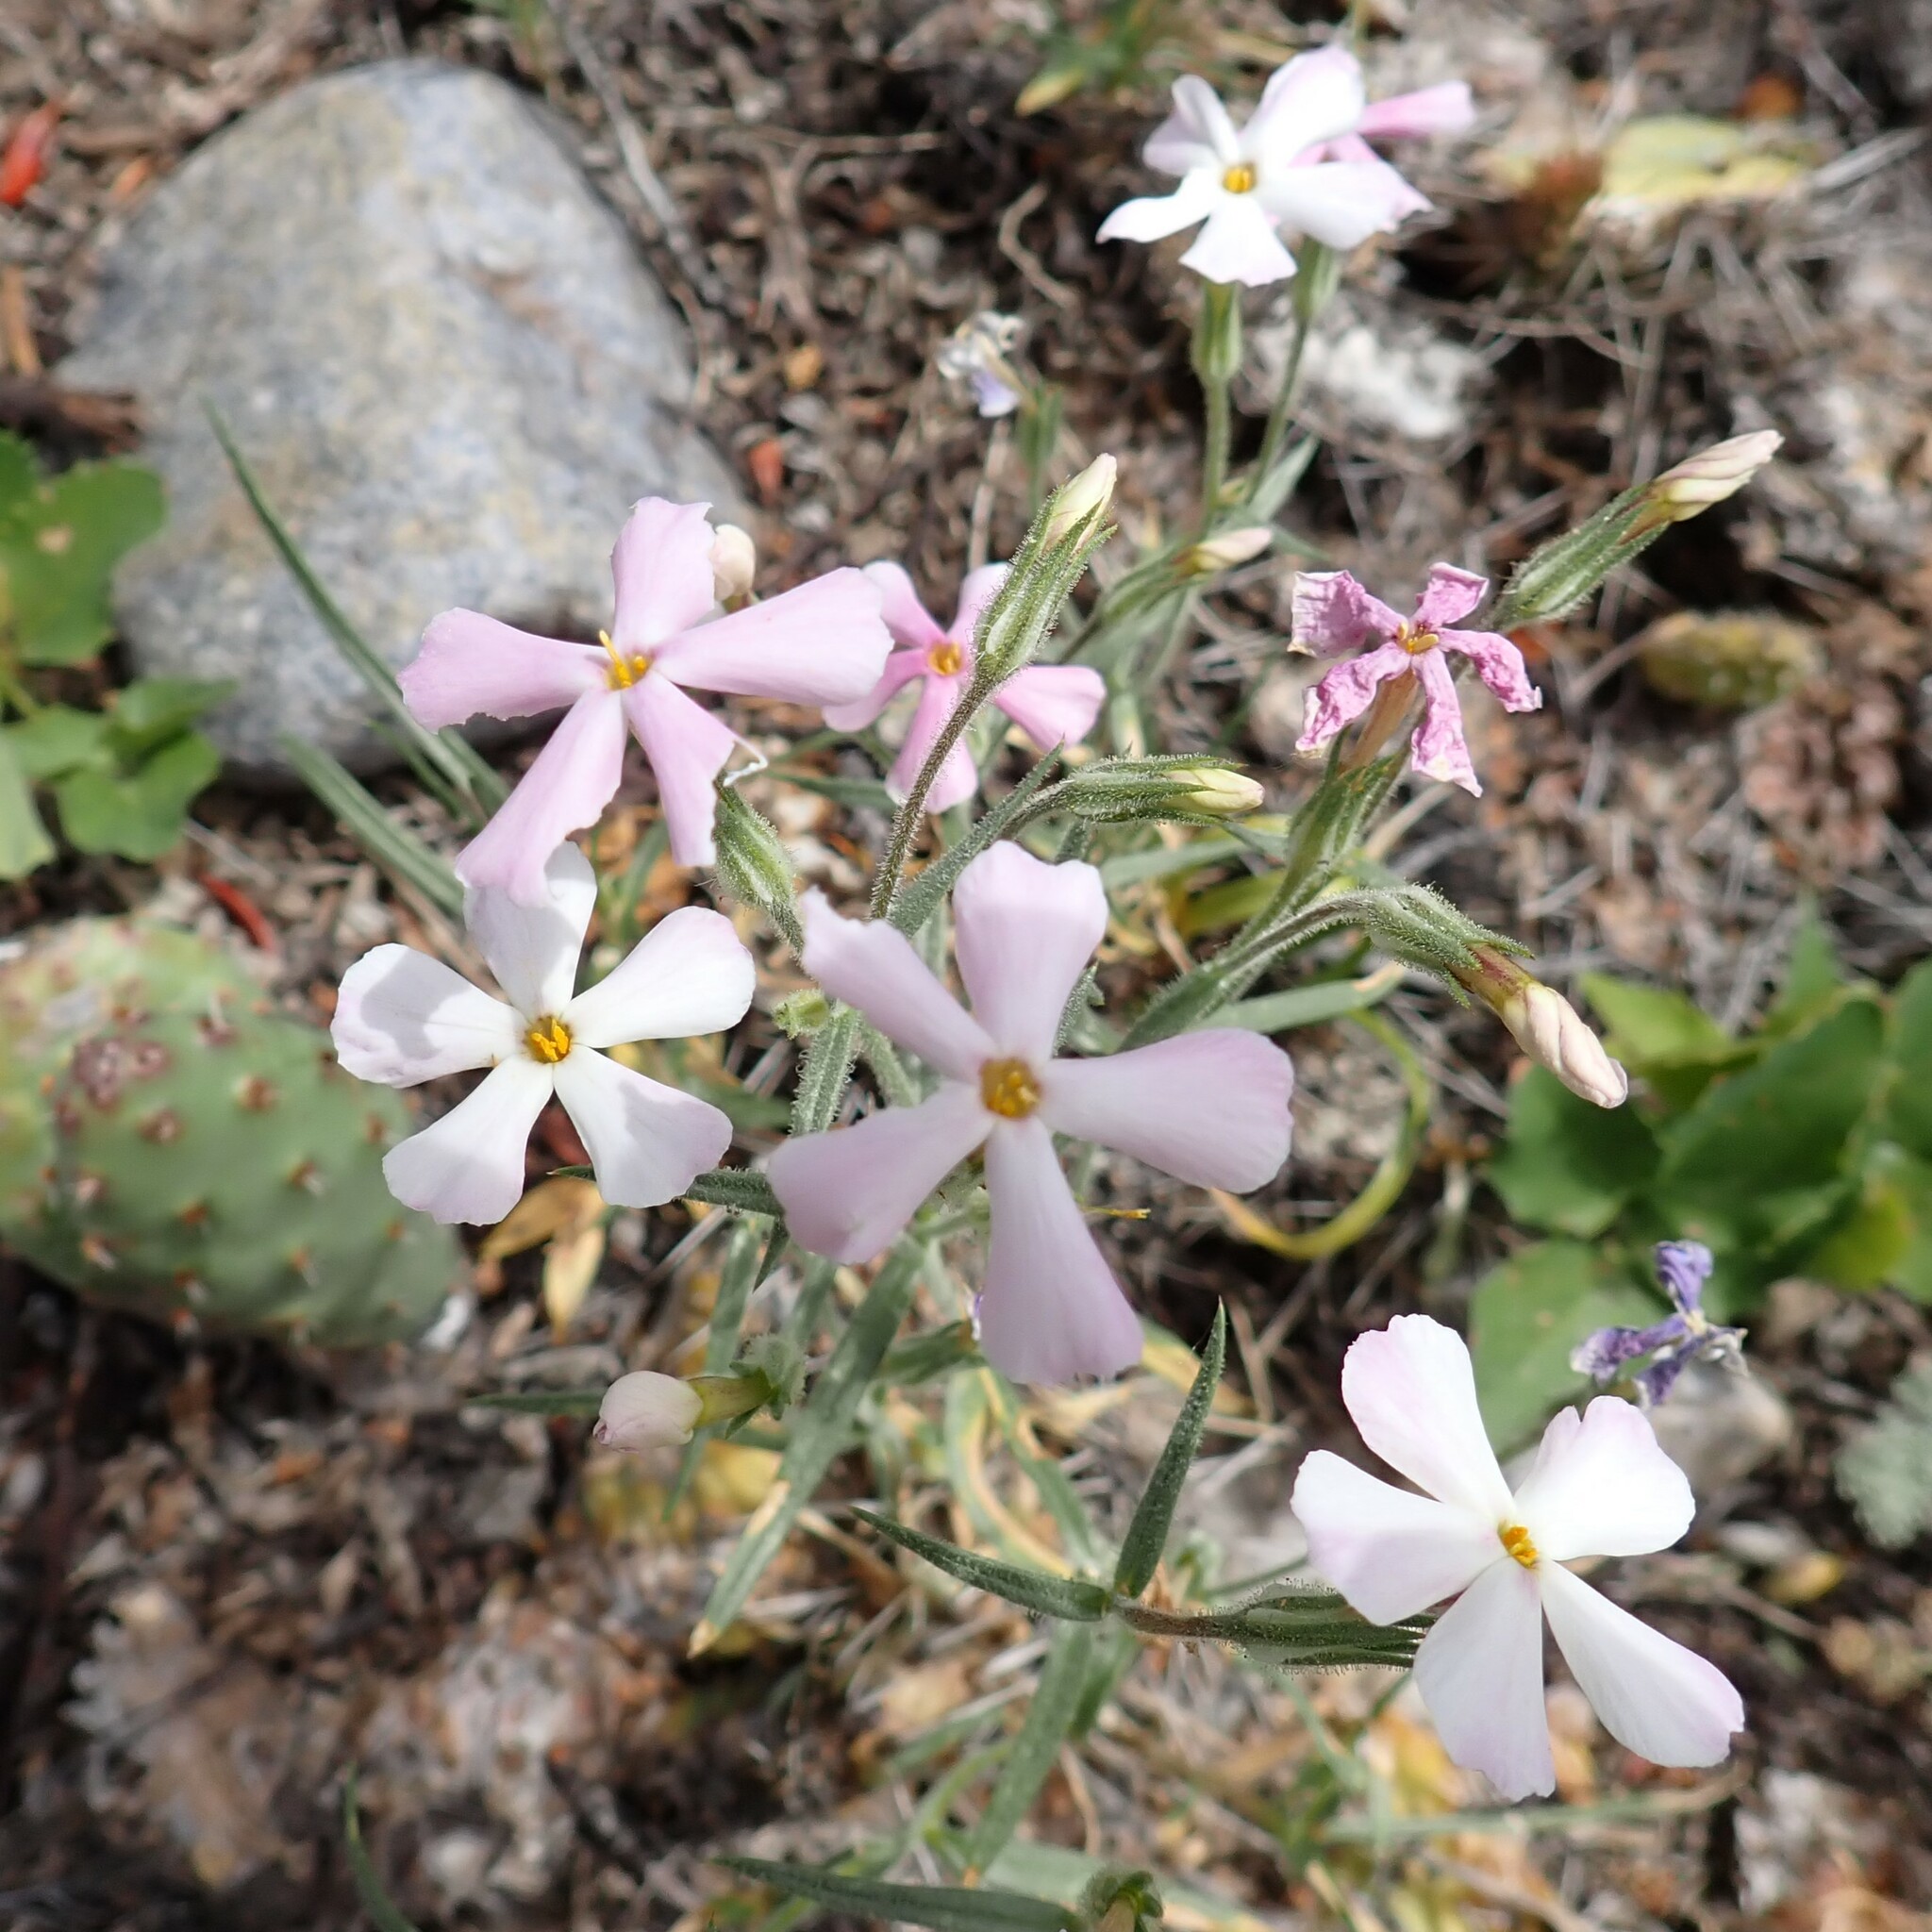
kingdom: Plantae
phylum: Tracheophyta
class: Magnoliopsida
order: Ericales
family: Polemoniaceae
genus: Phlox
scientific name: Phlox longifolia
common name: Longleaf phlox
